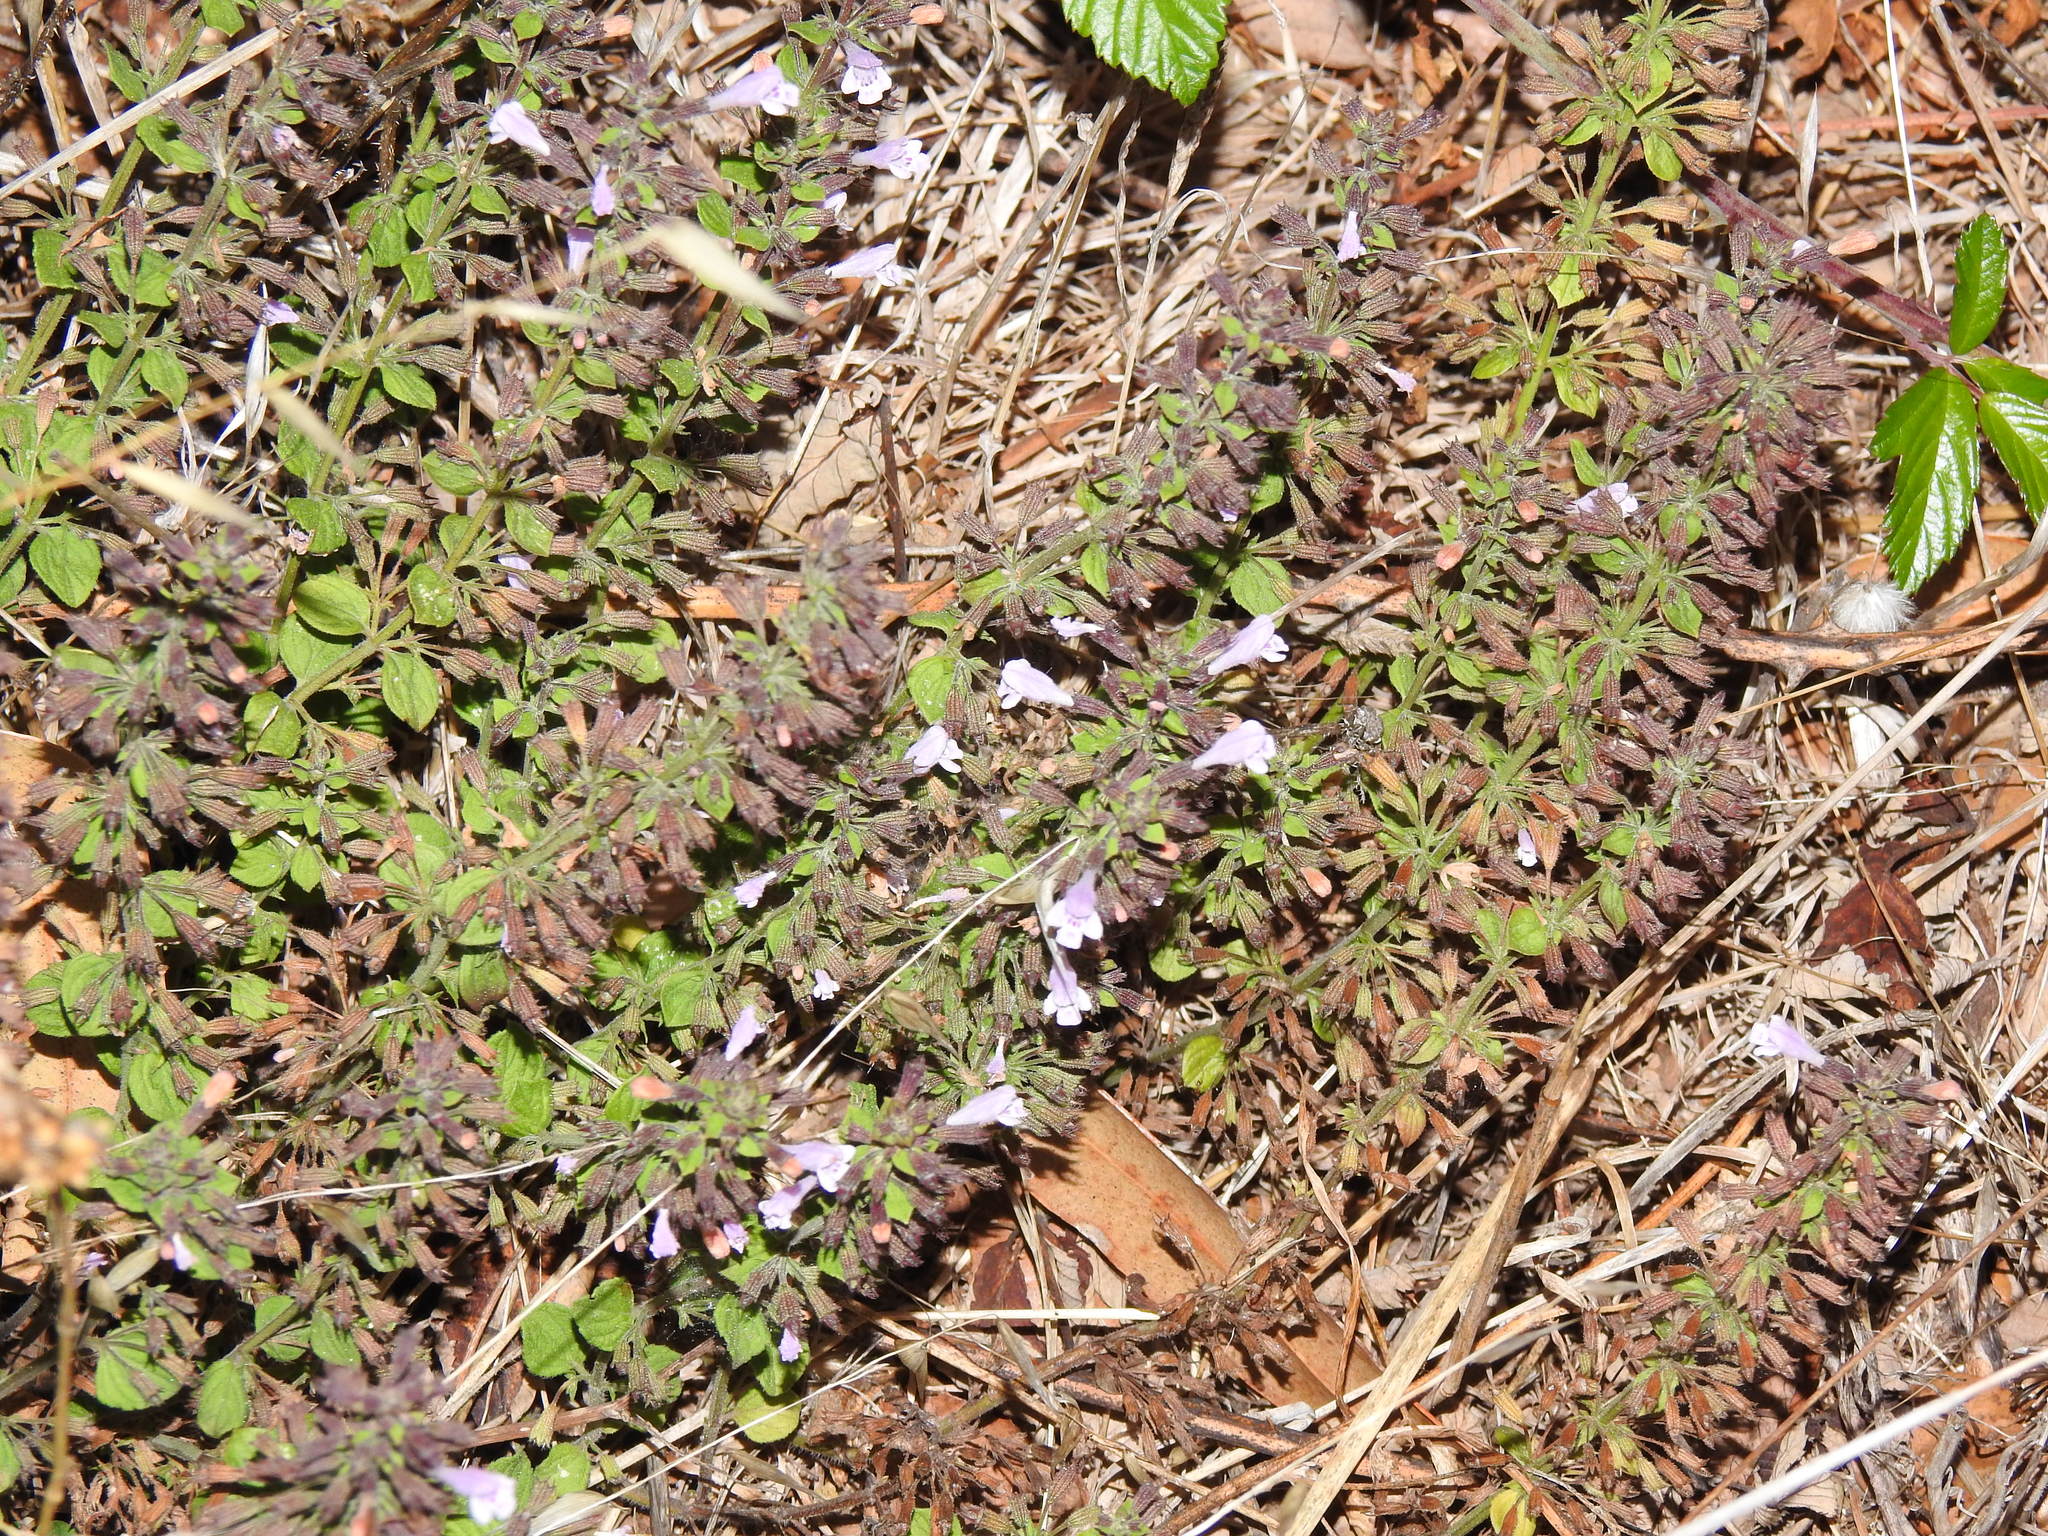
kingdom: Plantae
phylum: Tracheophyta
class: Magnoliopsida
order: Lamiales
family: Lamiaceae
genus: Clinopodium
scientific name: Clinopodium nepeta
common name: Lesser calamint
